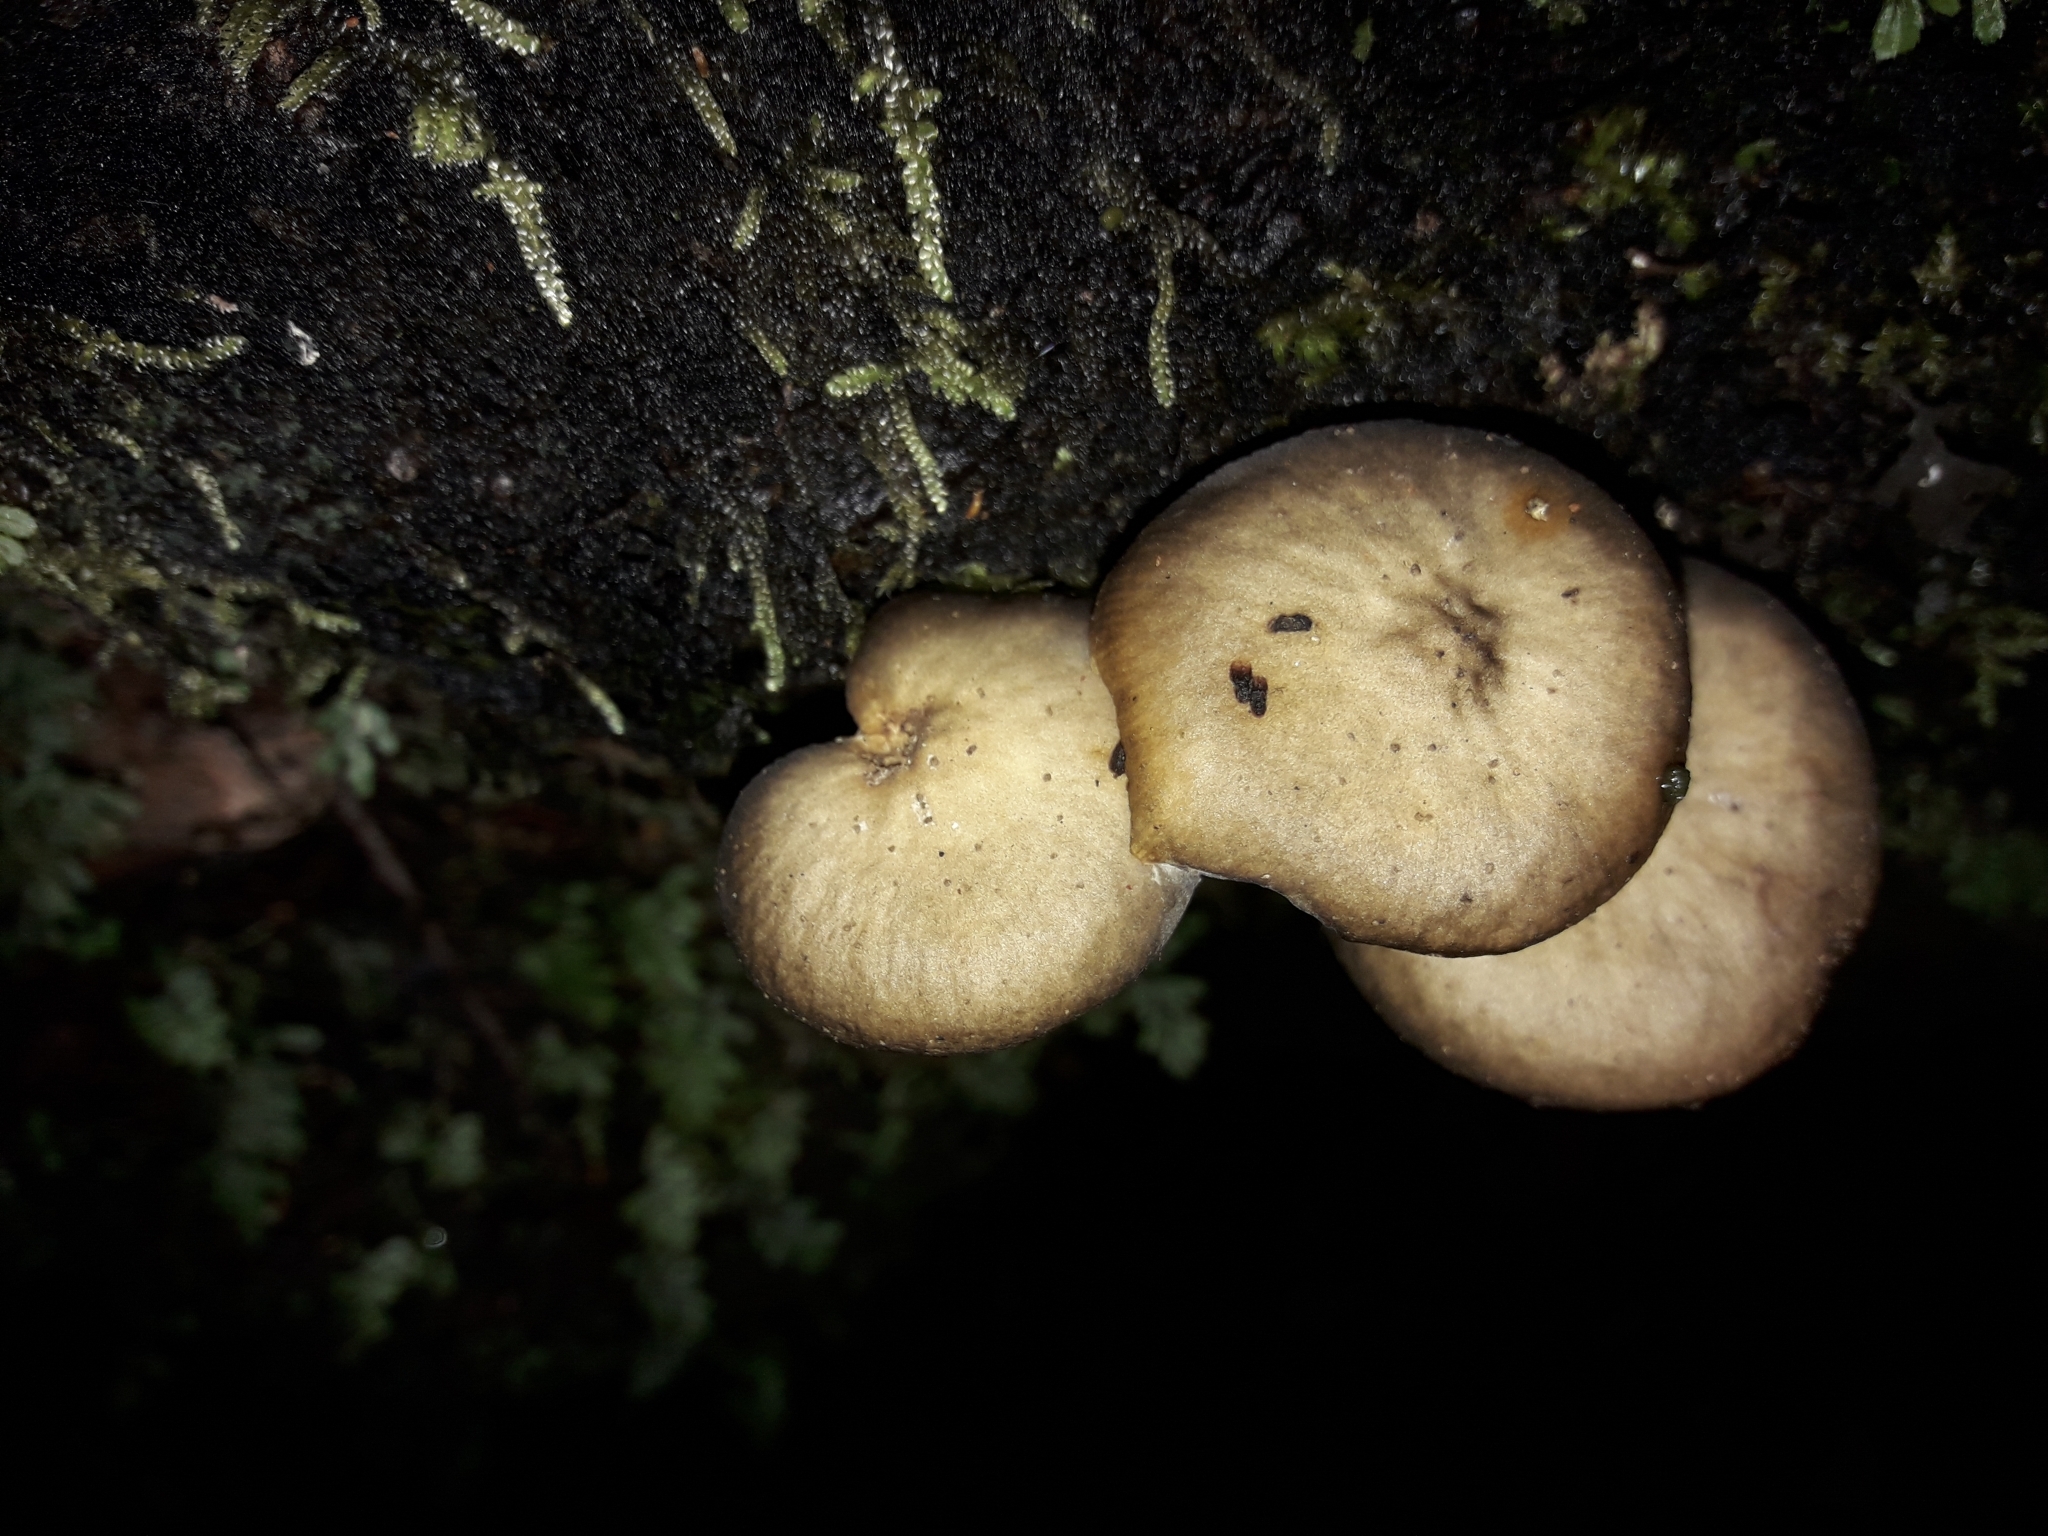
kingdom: Fungi
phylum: Basidiomycota
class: Agaricomycetes
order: Agaricales
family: Physalacriaceae
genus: Armillaria
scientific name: Armillaria novae-zelandiae
